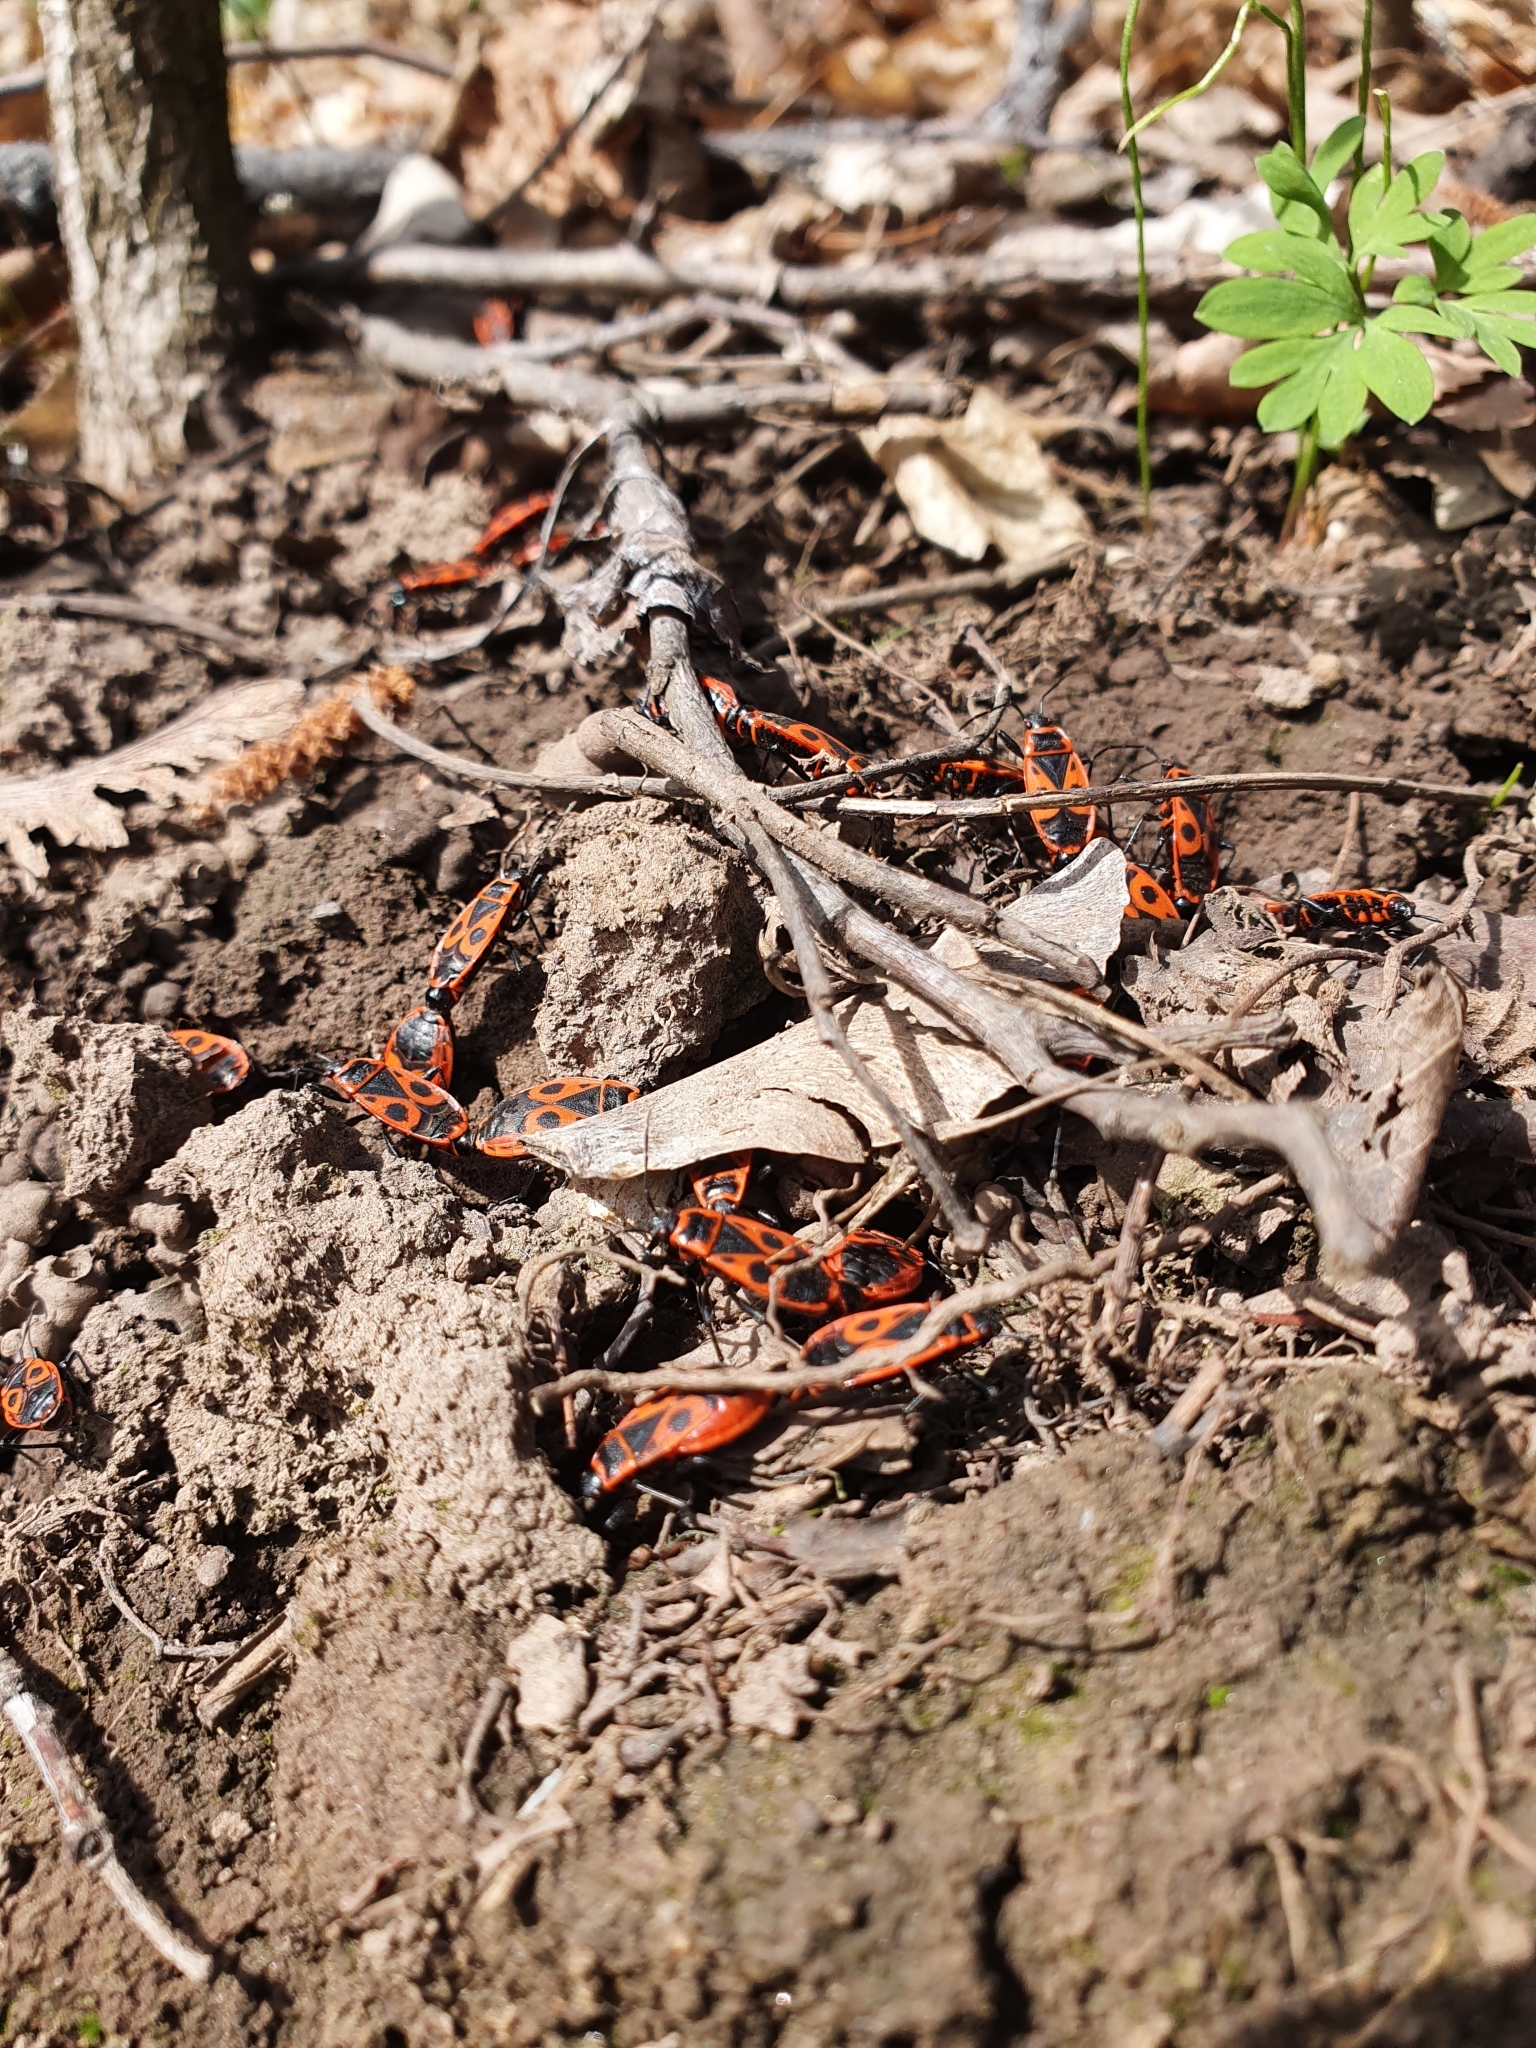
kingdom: Animalia
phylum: Arthropoda
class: Insecta
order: Hemiptera
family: Pyrrhocoridae
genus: Pyrrhocoris
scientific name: Pyrrhocoris apterus
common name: Firebug
